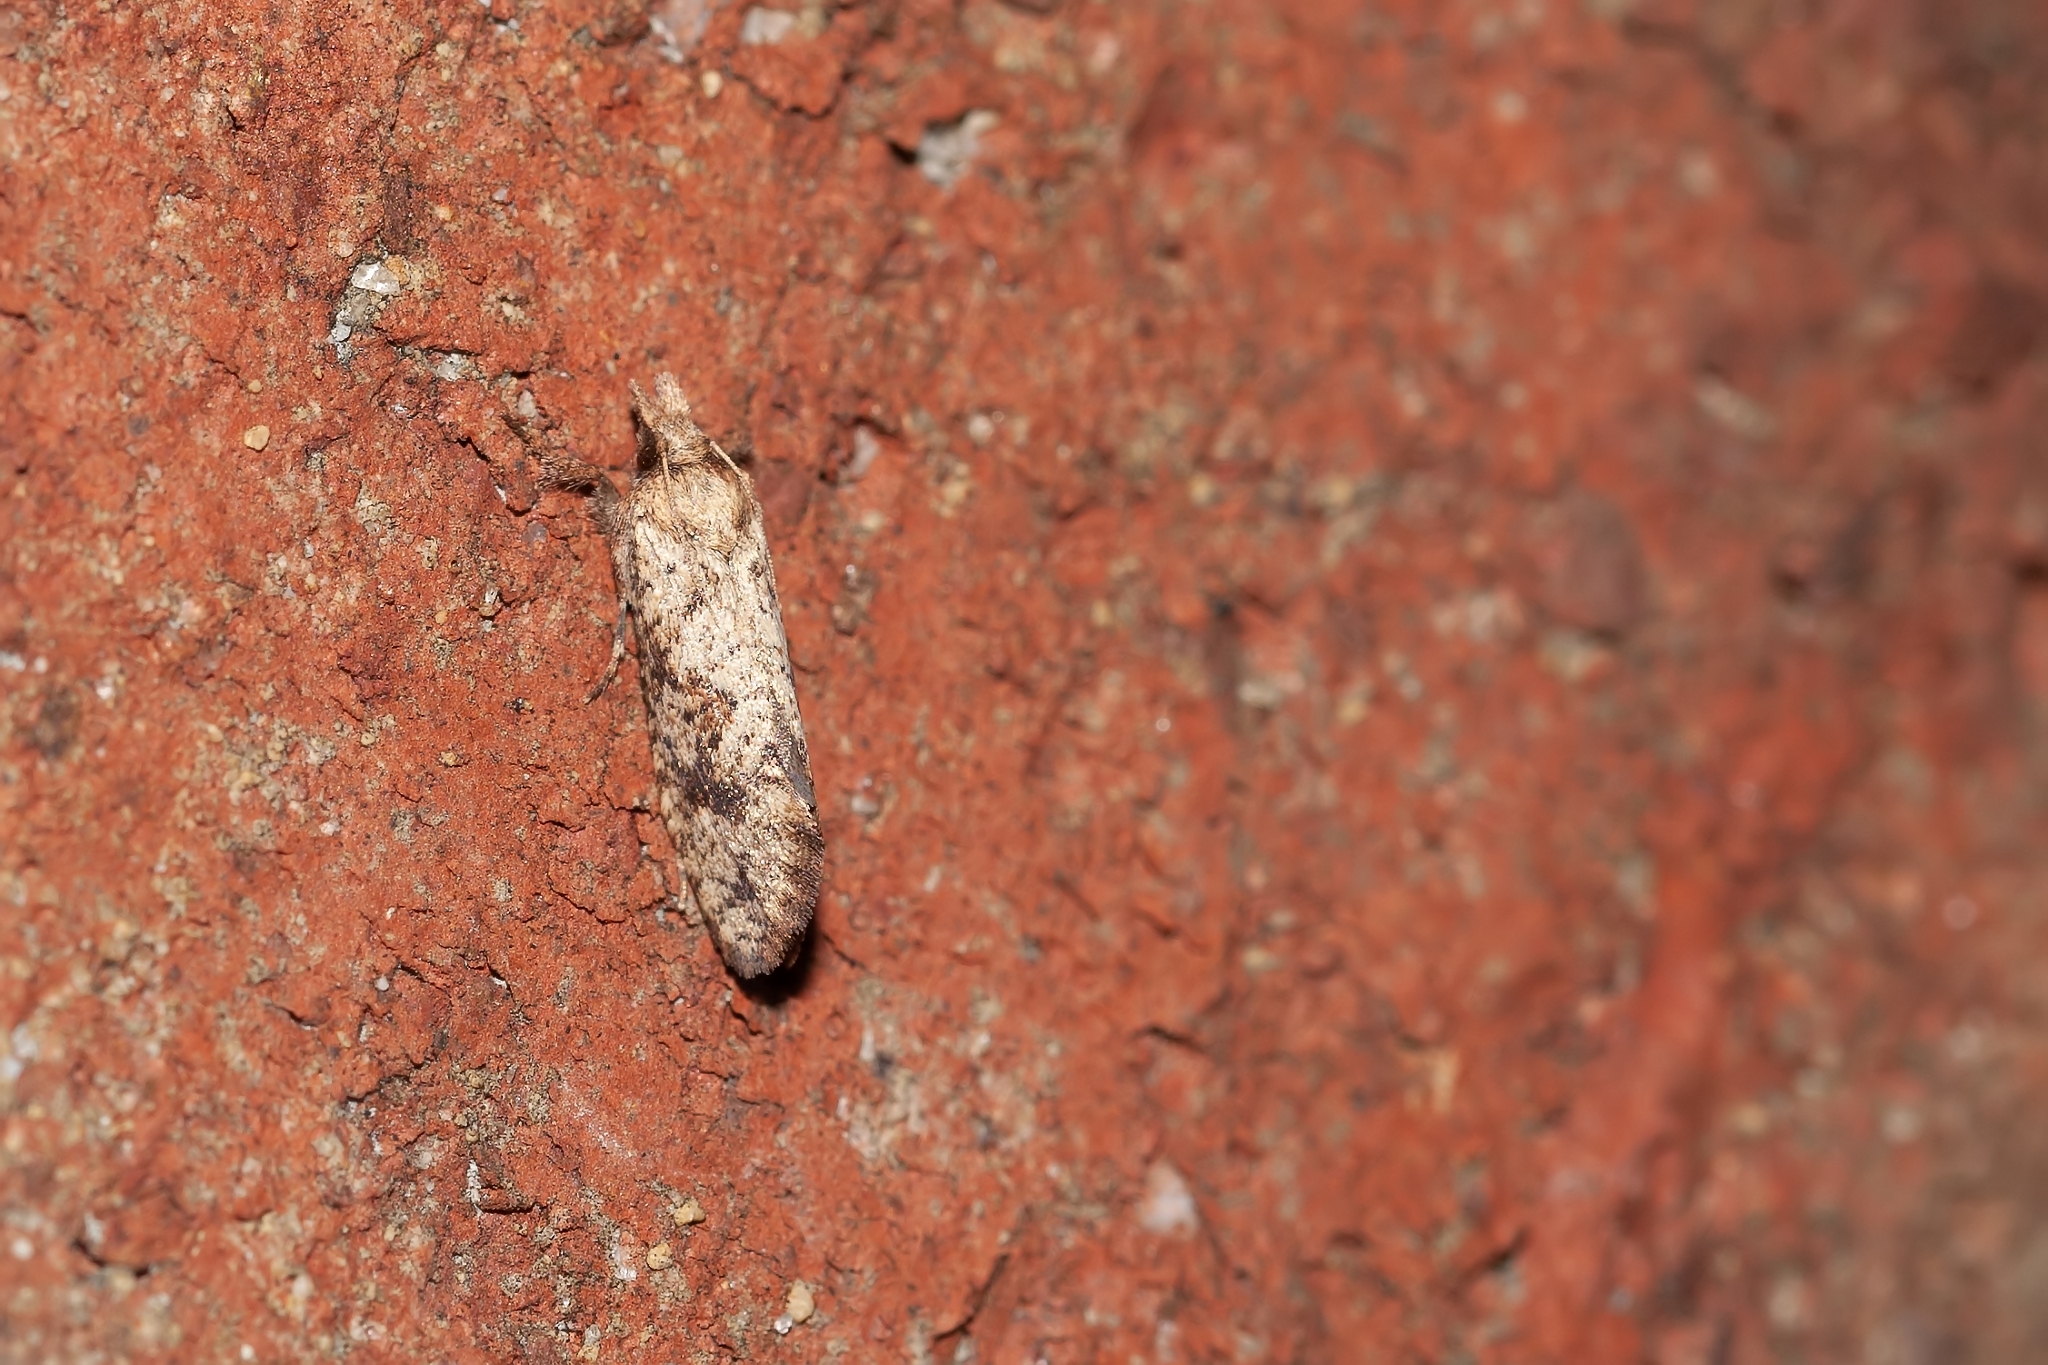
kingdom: Animalia
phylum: Arthropoda
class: Insecta
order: Lepidoptera
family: Tineidae
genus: Acrolophus
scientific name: Acrolophus walsinghami
